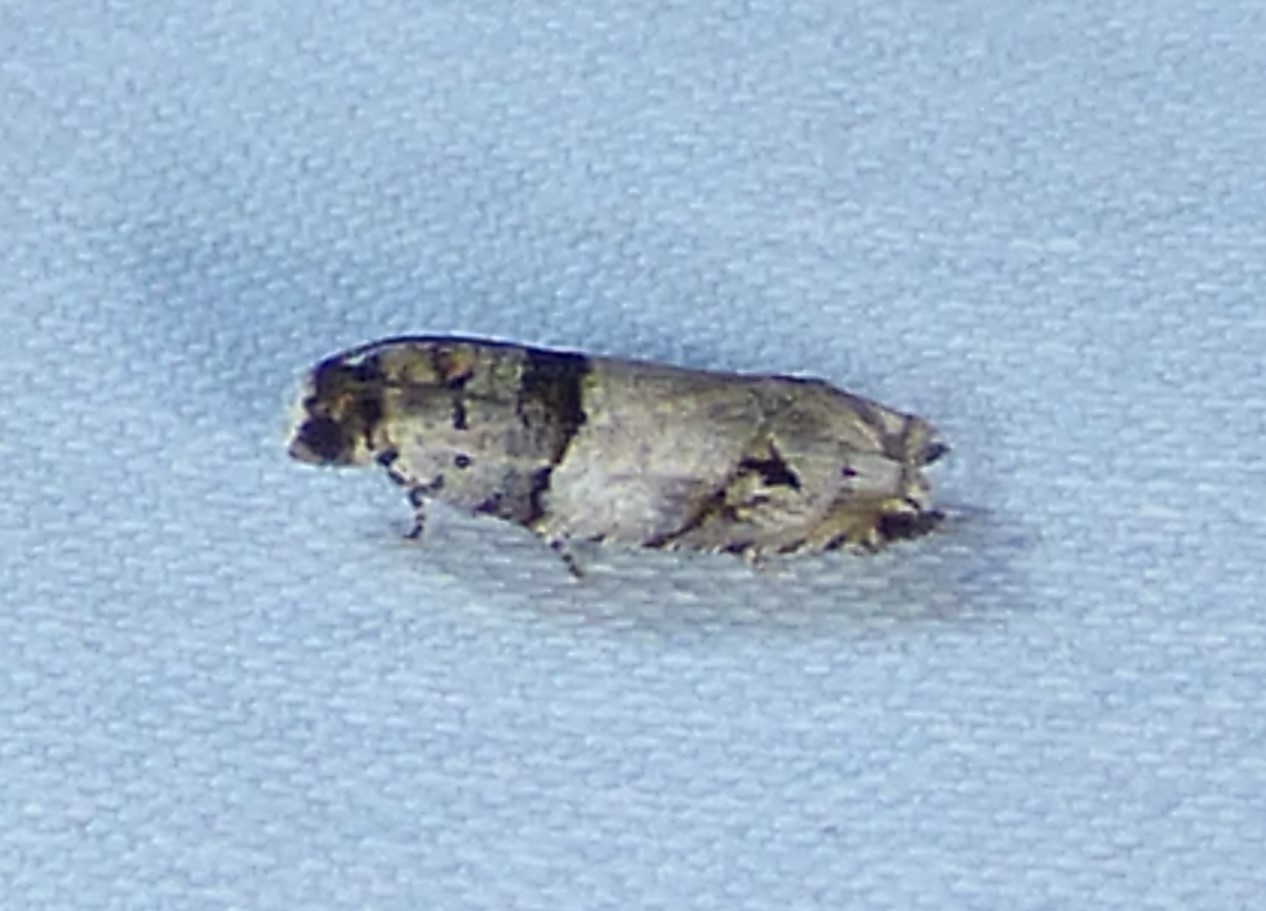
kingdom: Animalia
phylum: Arthropoda
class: Insecta
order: Lepidoptera
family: Tortricidae
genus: Rhopobota
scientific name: Rhopobota dietziana
